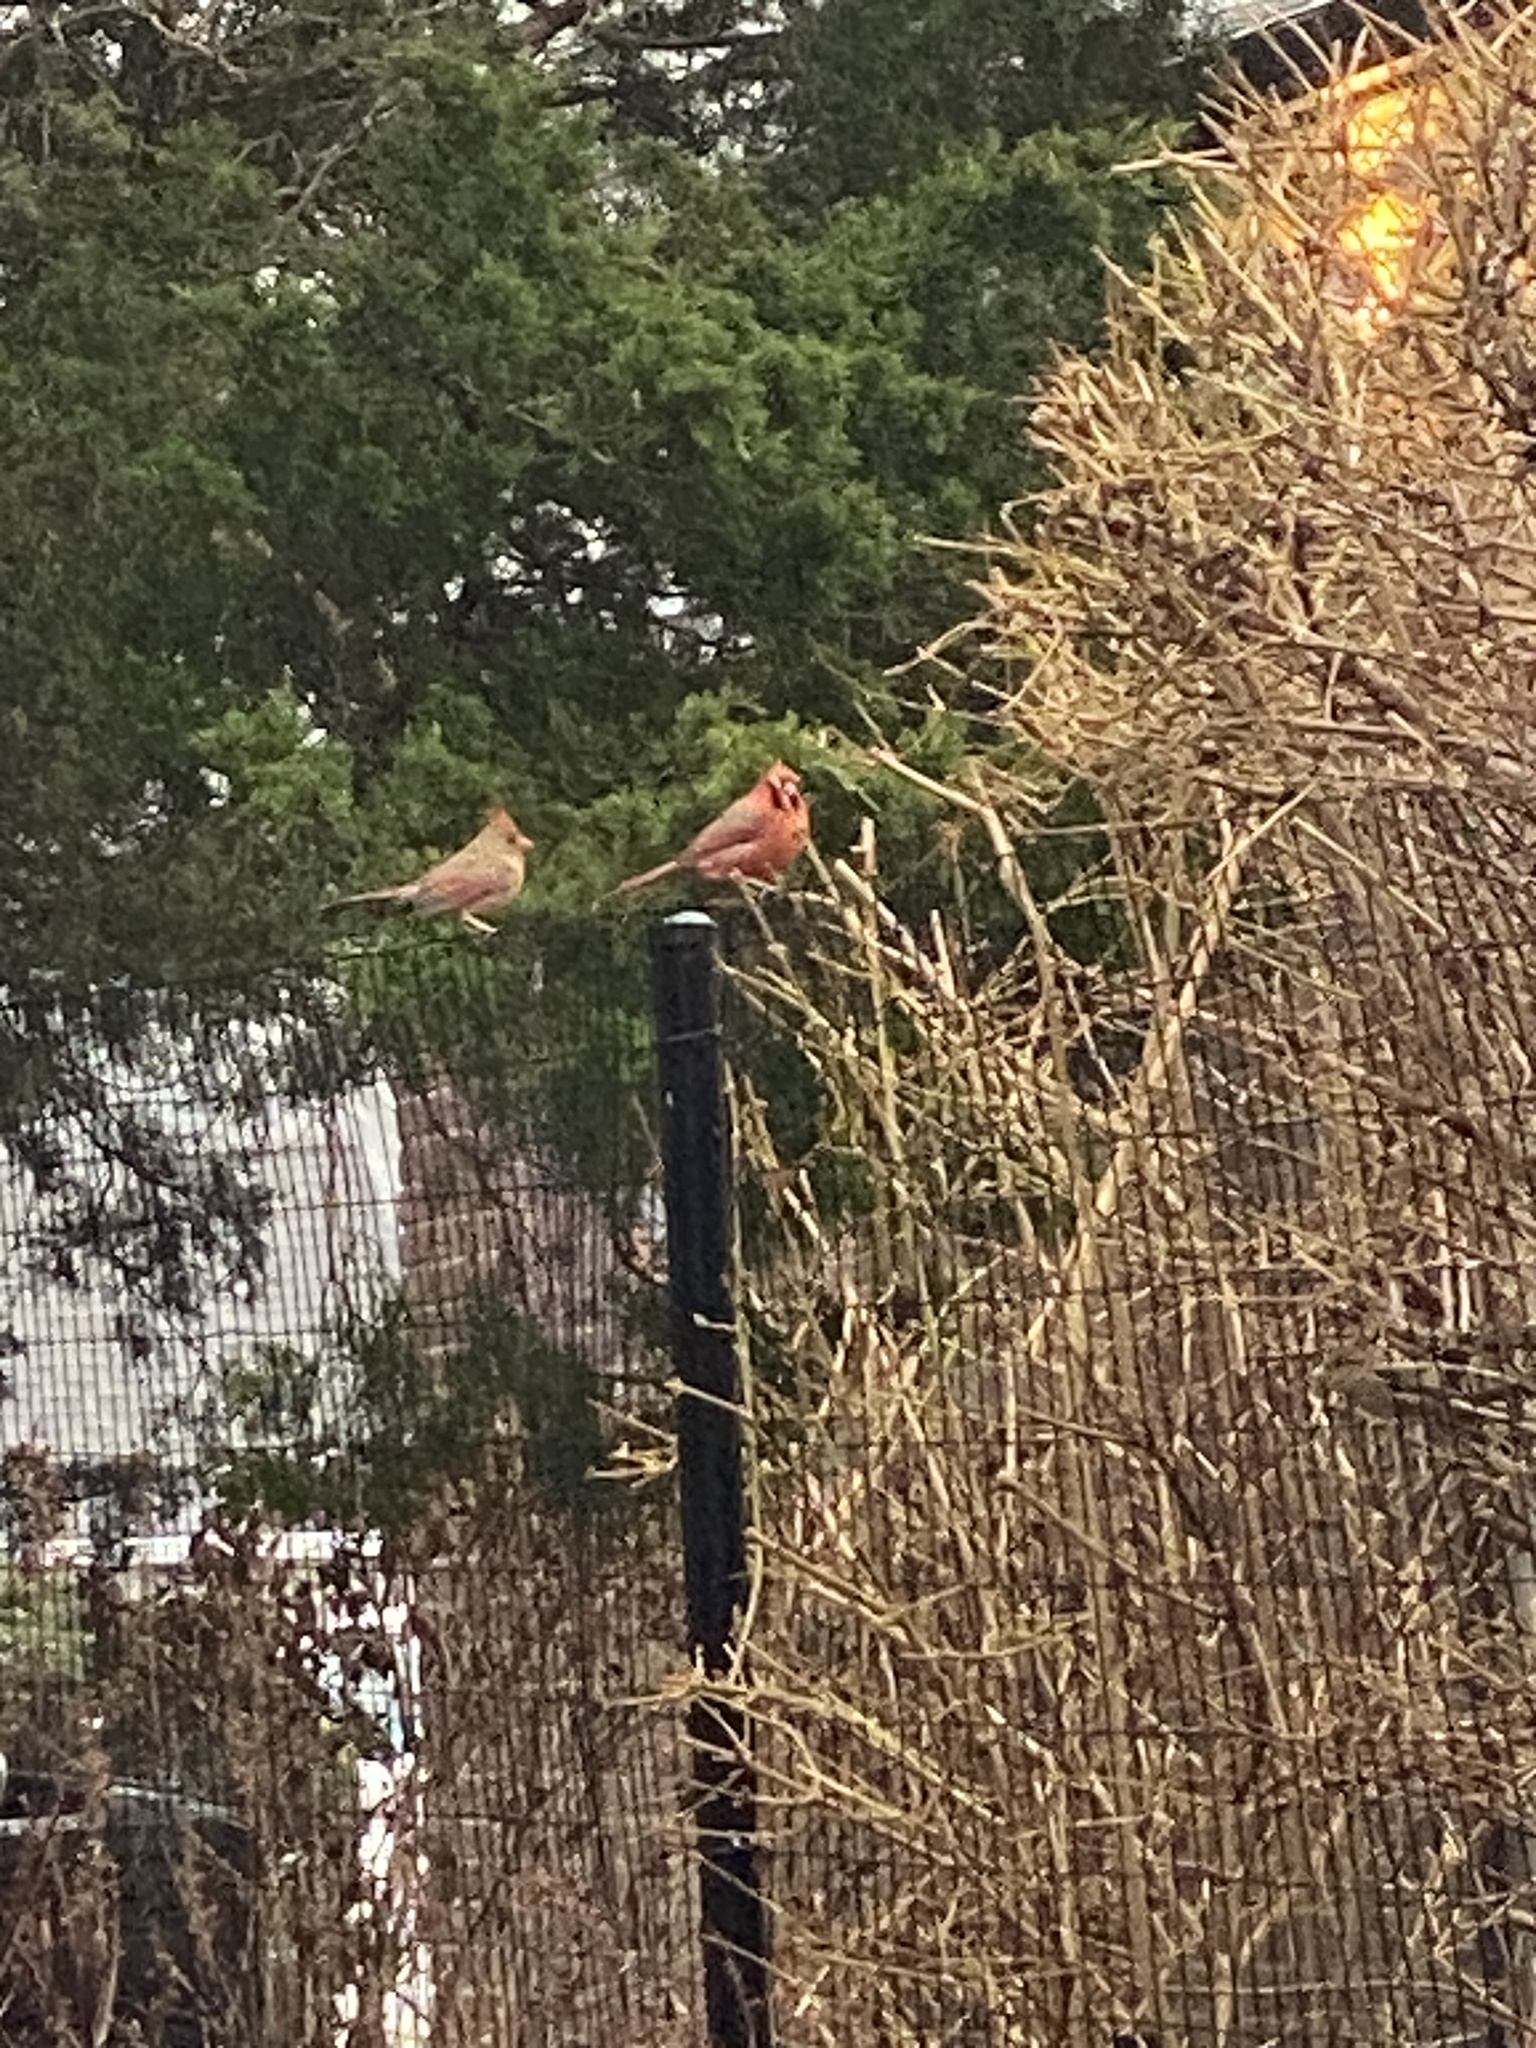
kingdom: Animalia
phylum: Chordata
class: Aves
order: Passeriformes
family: Cardinalidae
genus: Cardinalis
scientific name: Cardinalis cardinalis
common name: Northern cardinal
